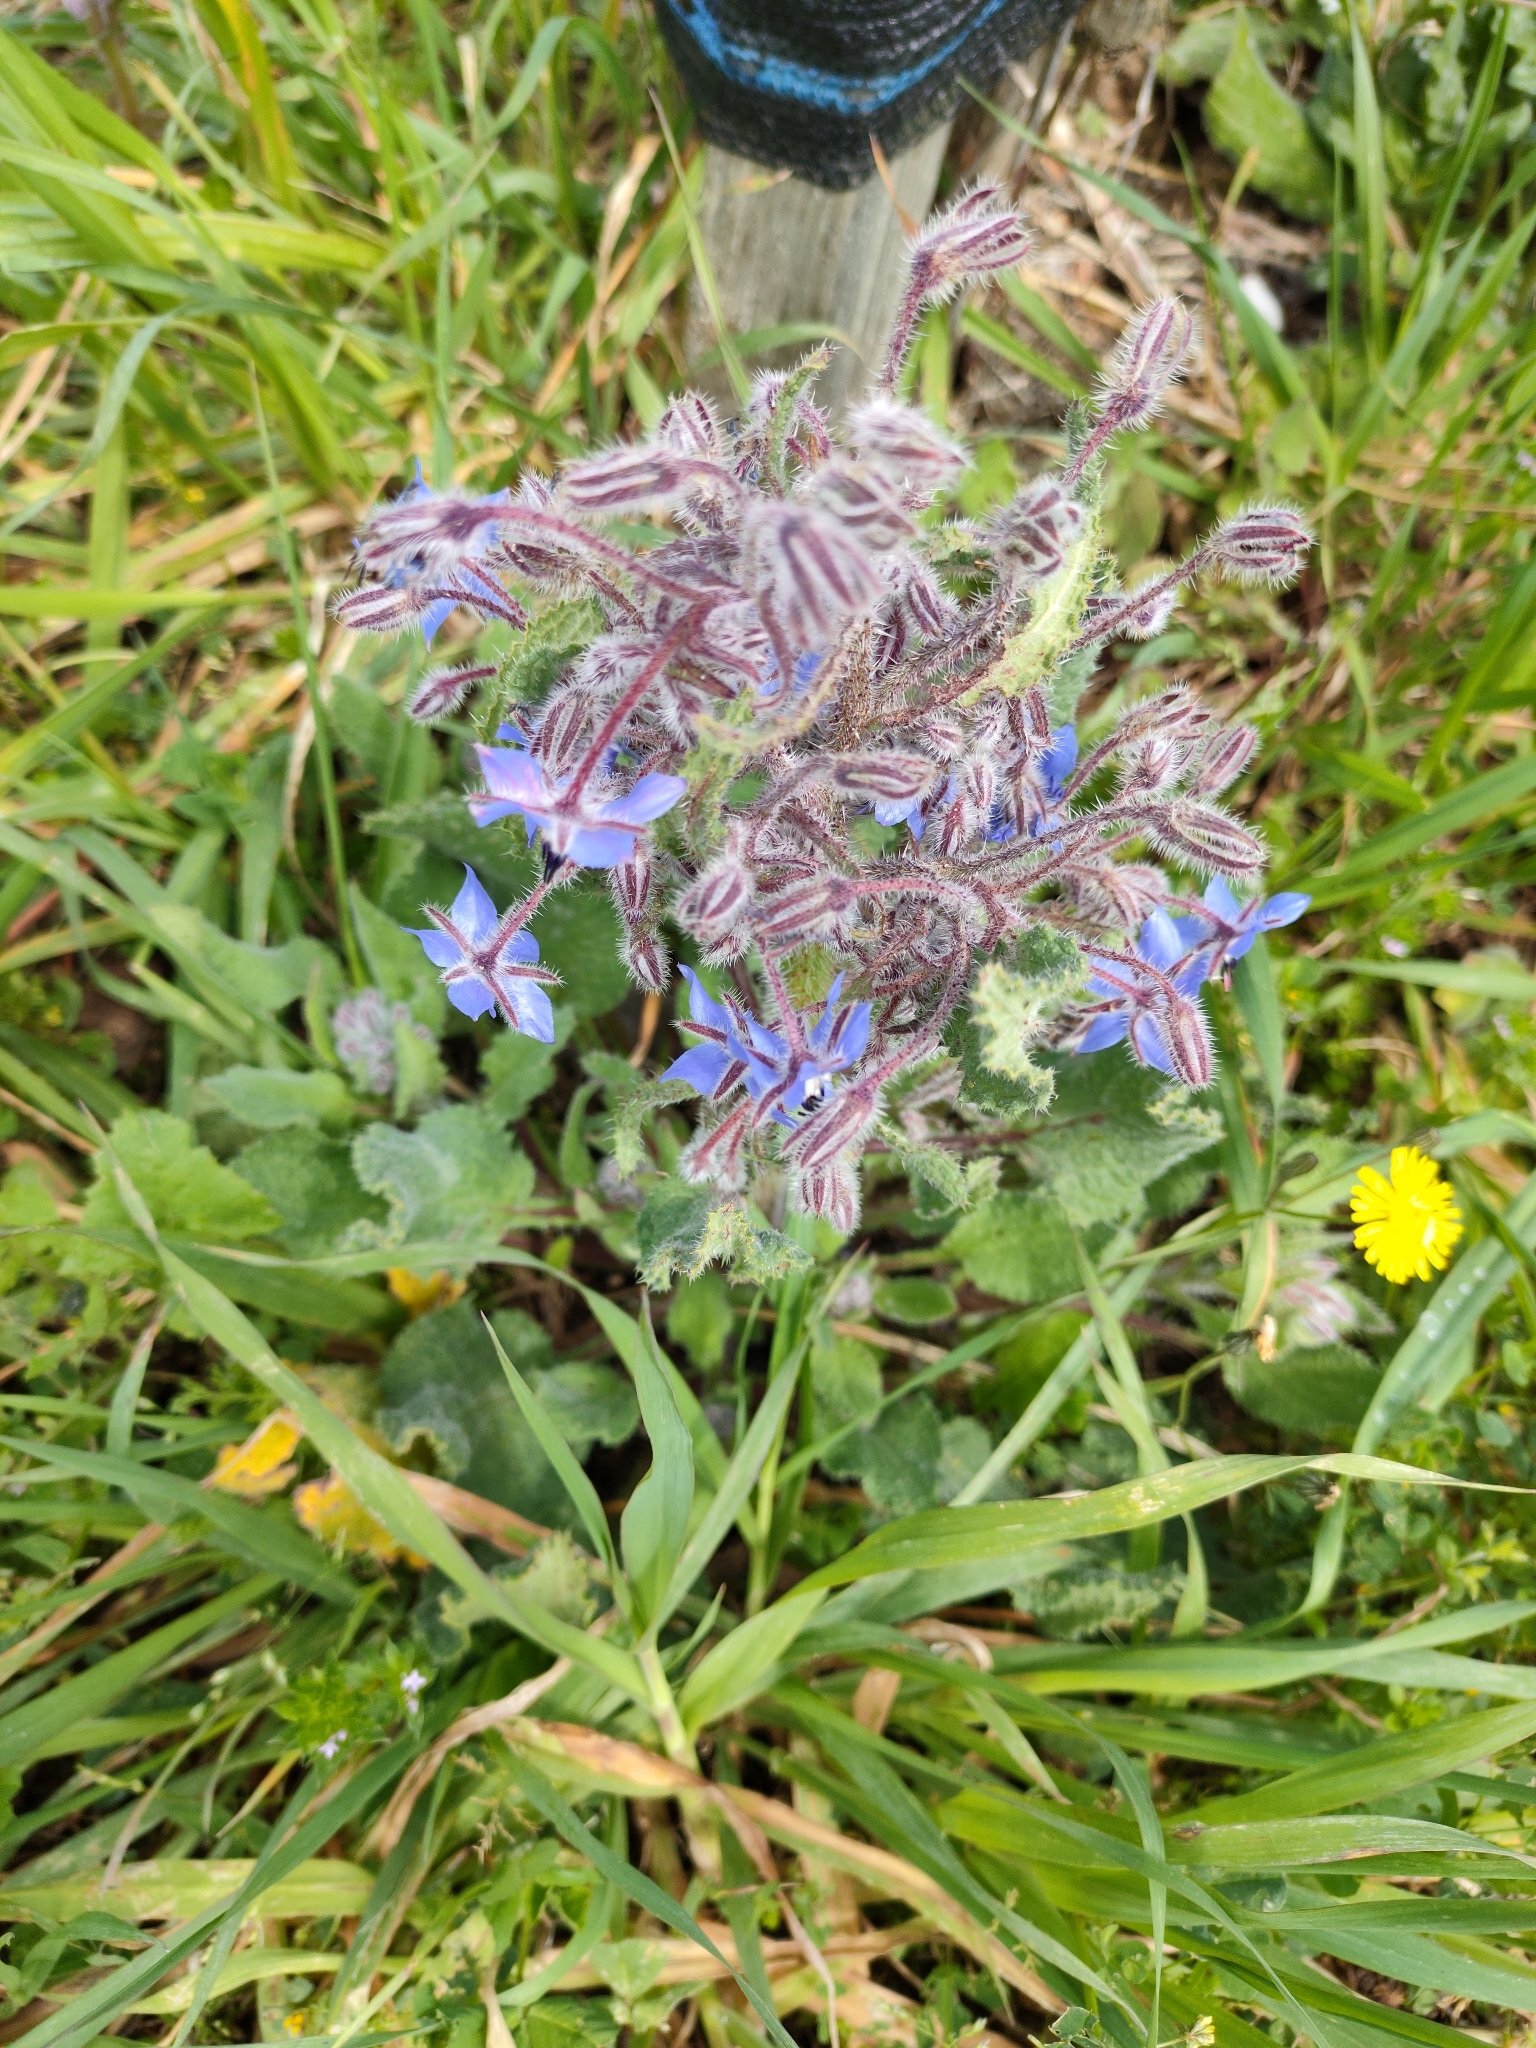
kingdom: Plantae
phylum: Tracheophyta
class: Magnoliopsida
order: Boraginales
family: Boraginaceae
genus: Borago
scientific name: Borago officinalis
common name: Borage
